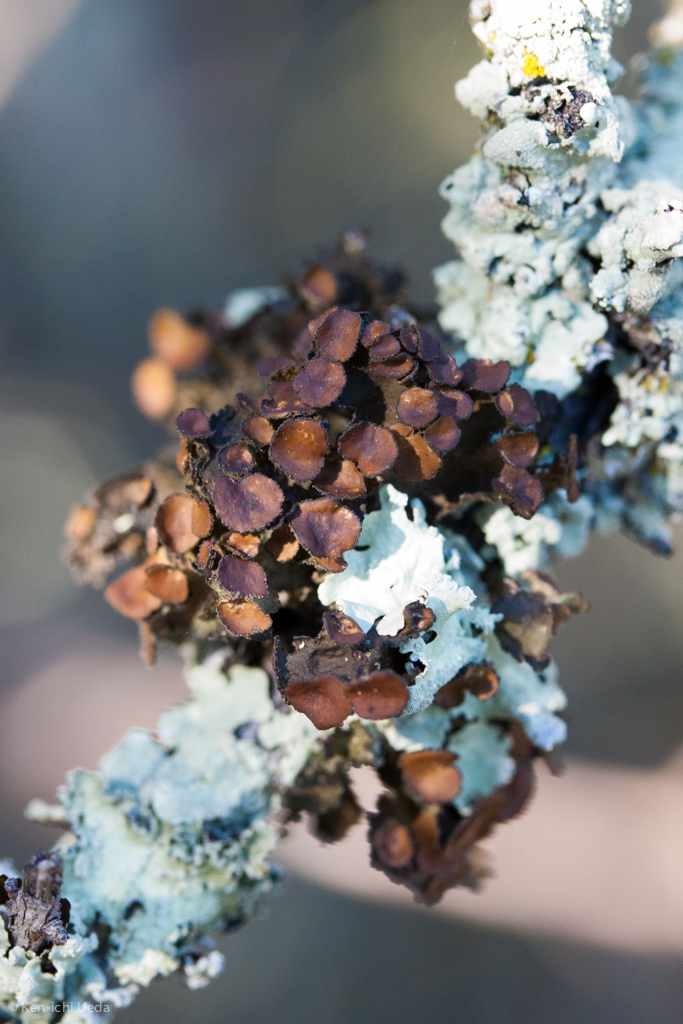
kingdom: Fungi
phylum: Ascomycota
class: Lecanoromycetes
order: Lecanorales
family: Parmeliaceae
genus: Nephromopsis
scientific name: Nephromopsis orbata
